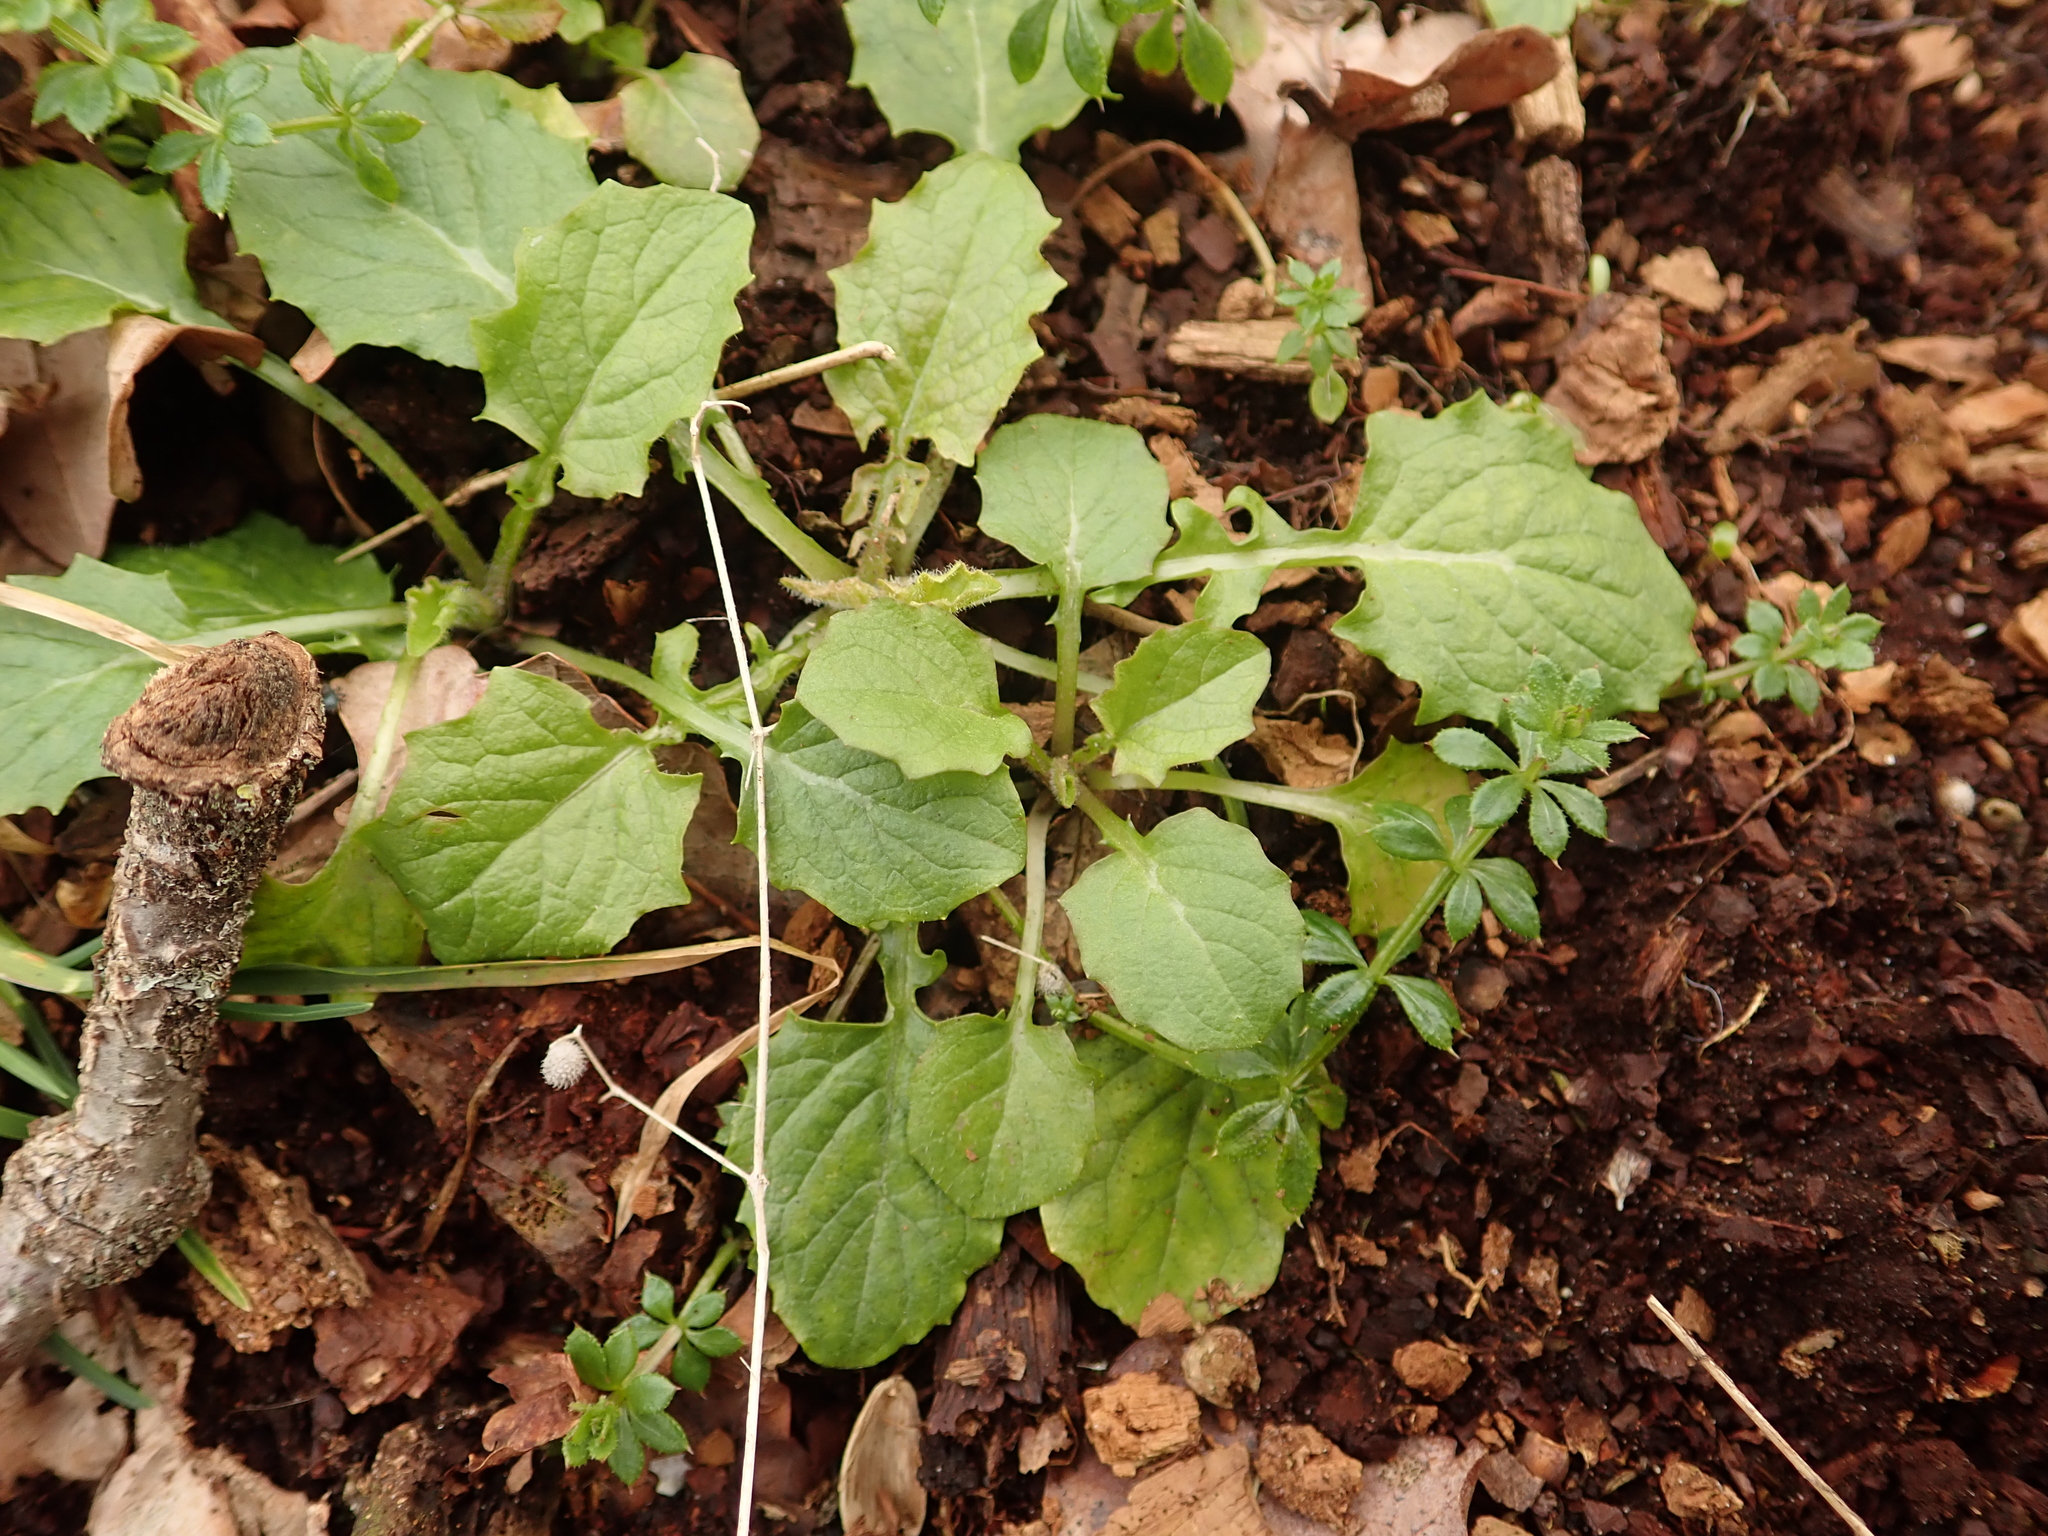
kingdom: Plantae
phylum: Tracheophyta
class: Magnoliopsida
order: Asterales
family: Asteraceae
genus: Lapsana
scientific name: Lapsana communis
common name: Nipplewort
